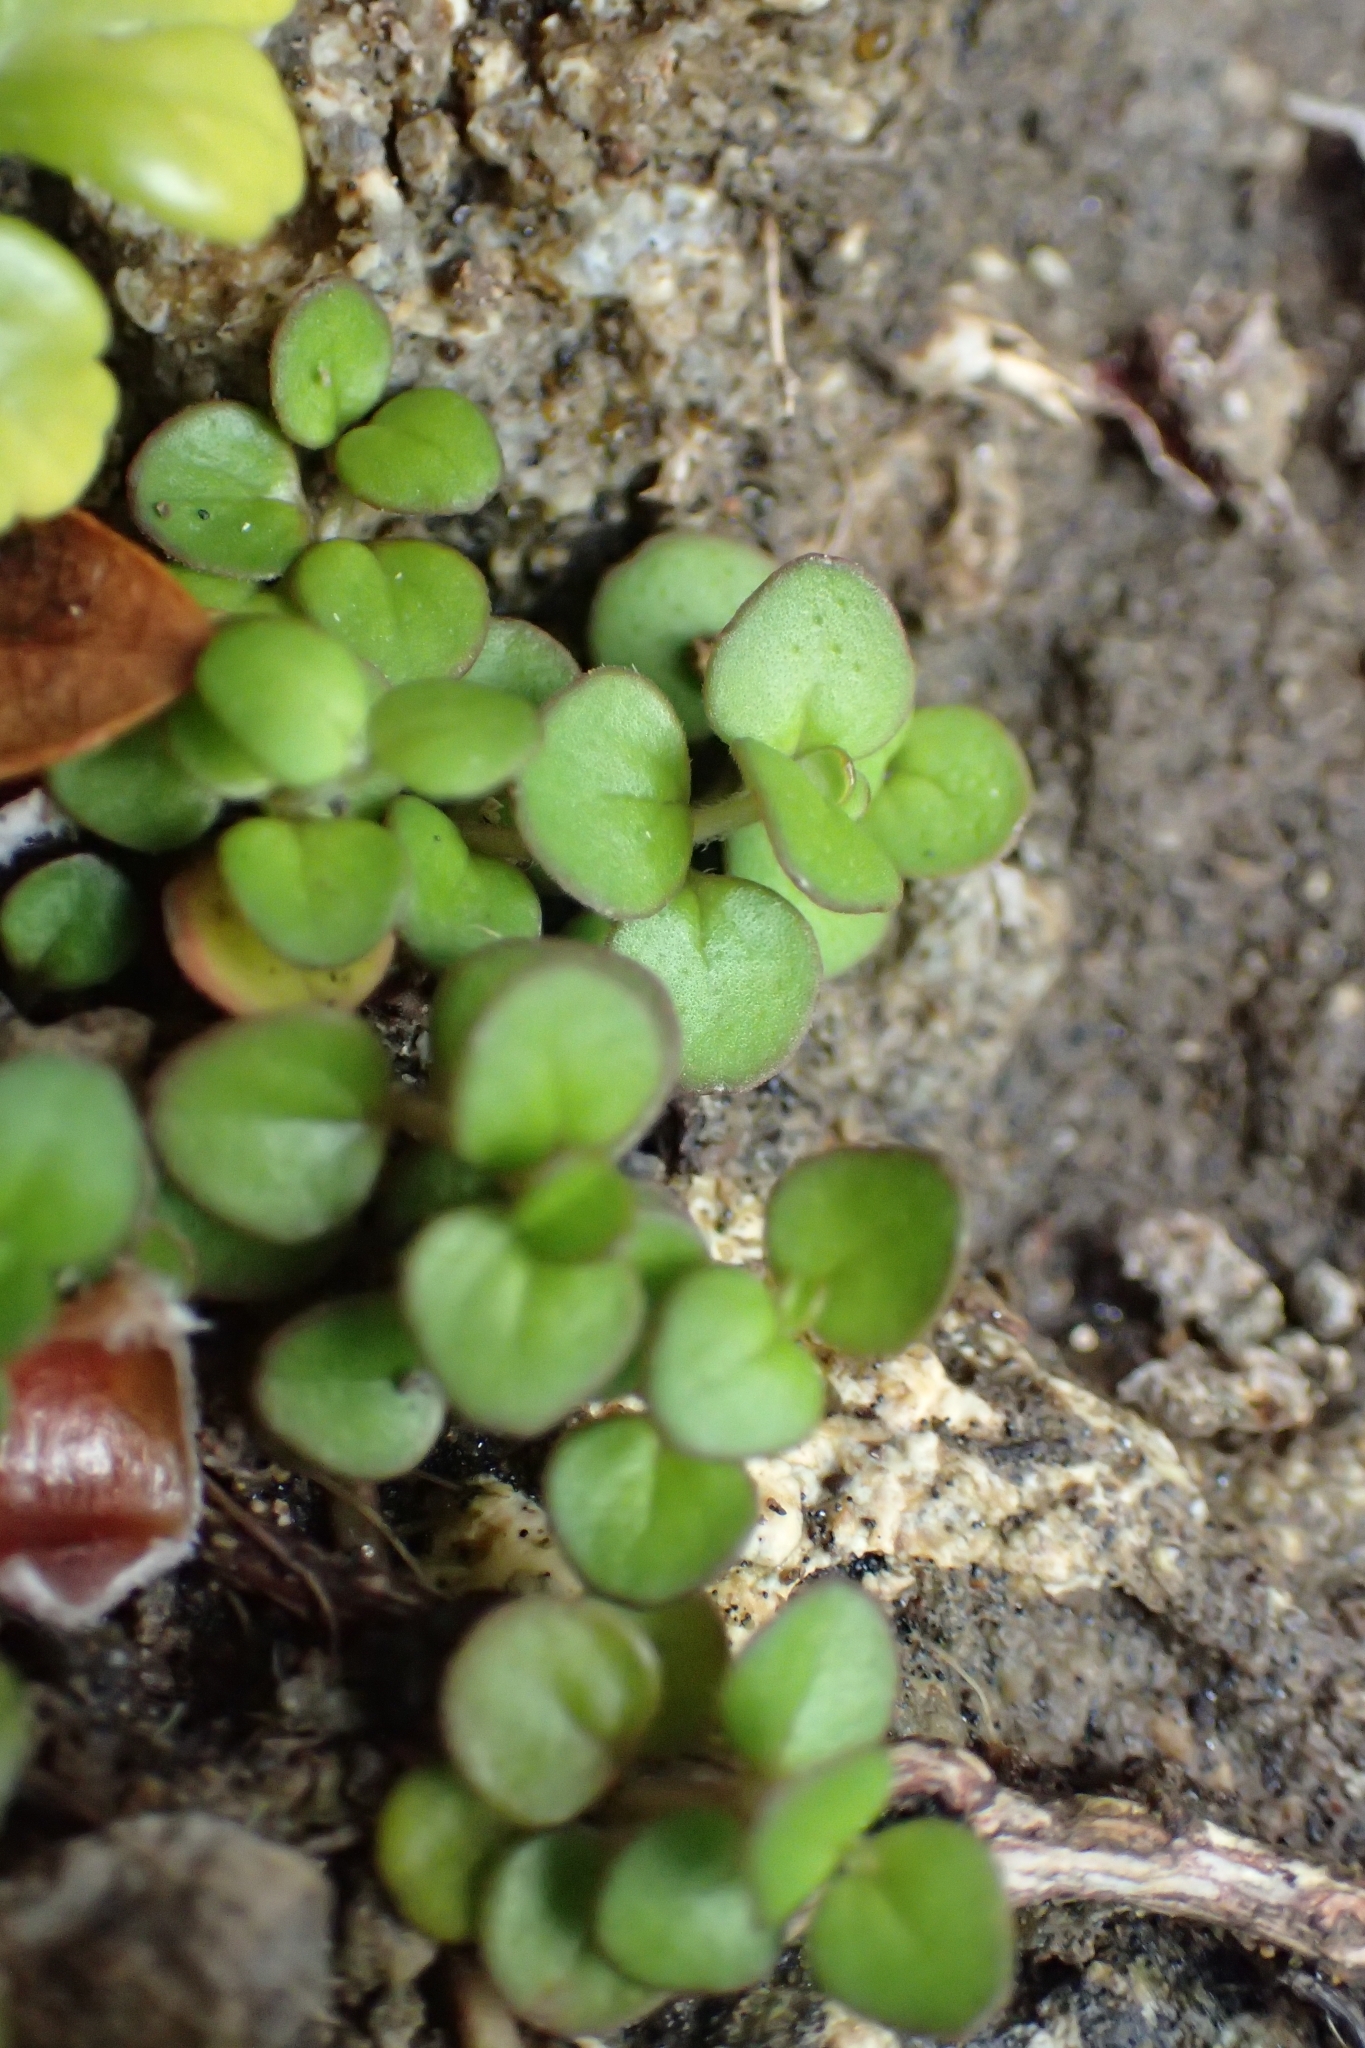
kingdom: Plantae
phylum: Tracheophyta
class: Magnoliopsida
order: Lamiales
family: Lamiaceae
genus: Mentha
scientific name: Mentha cunninghamii
